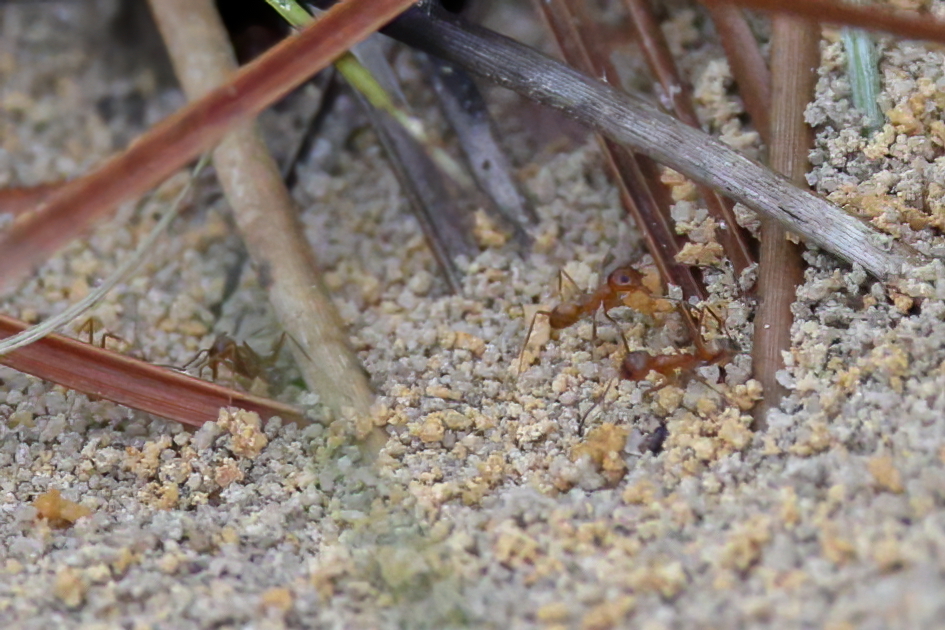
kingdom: Animalia
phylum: Arthropoda
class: Insecta
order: Hymenoptera
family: Formicidae
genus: Dorymyrmex
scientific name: Dorymyrmex bureni
